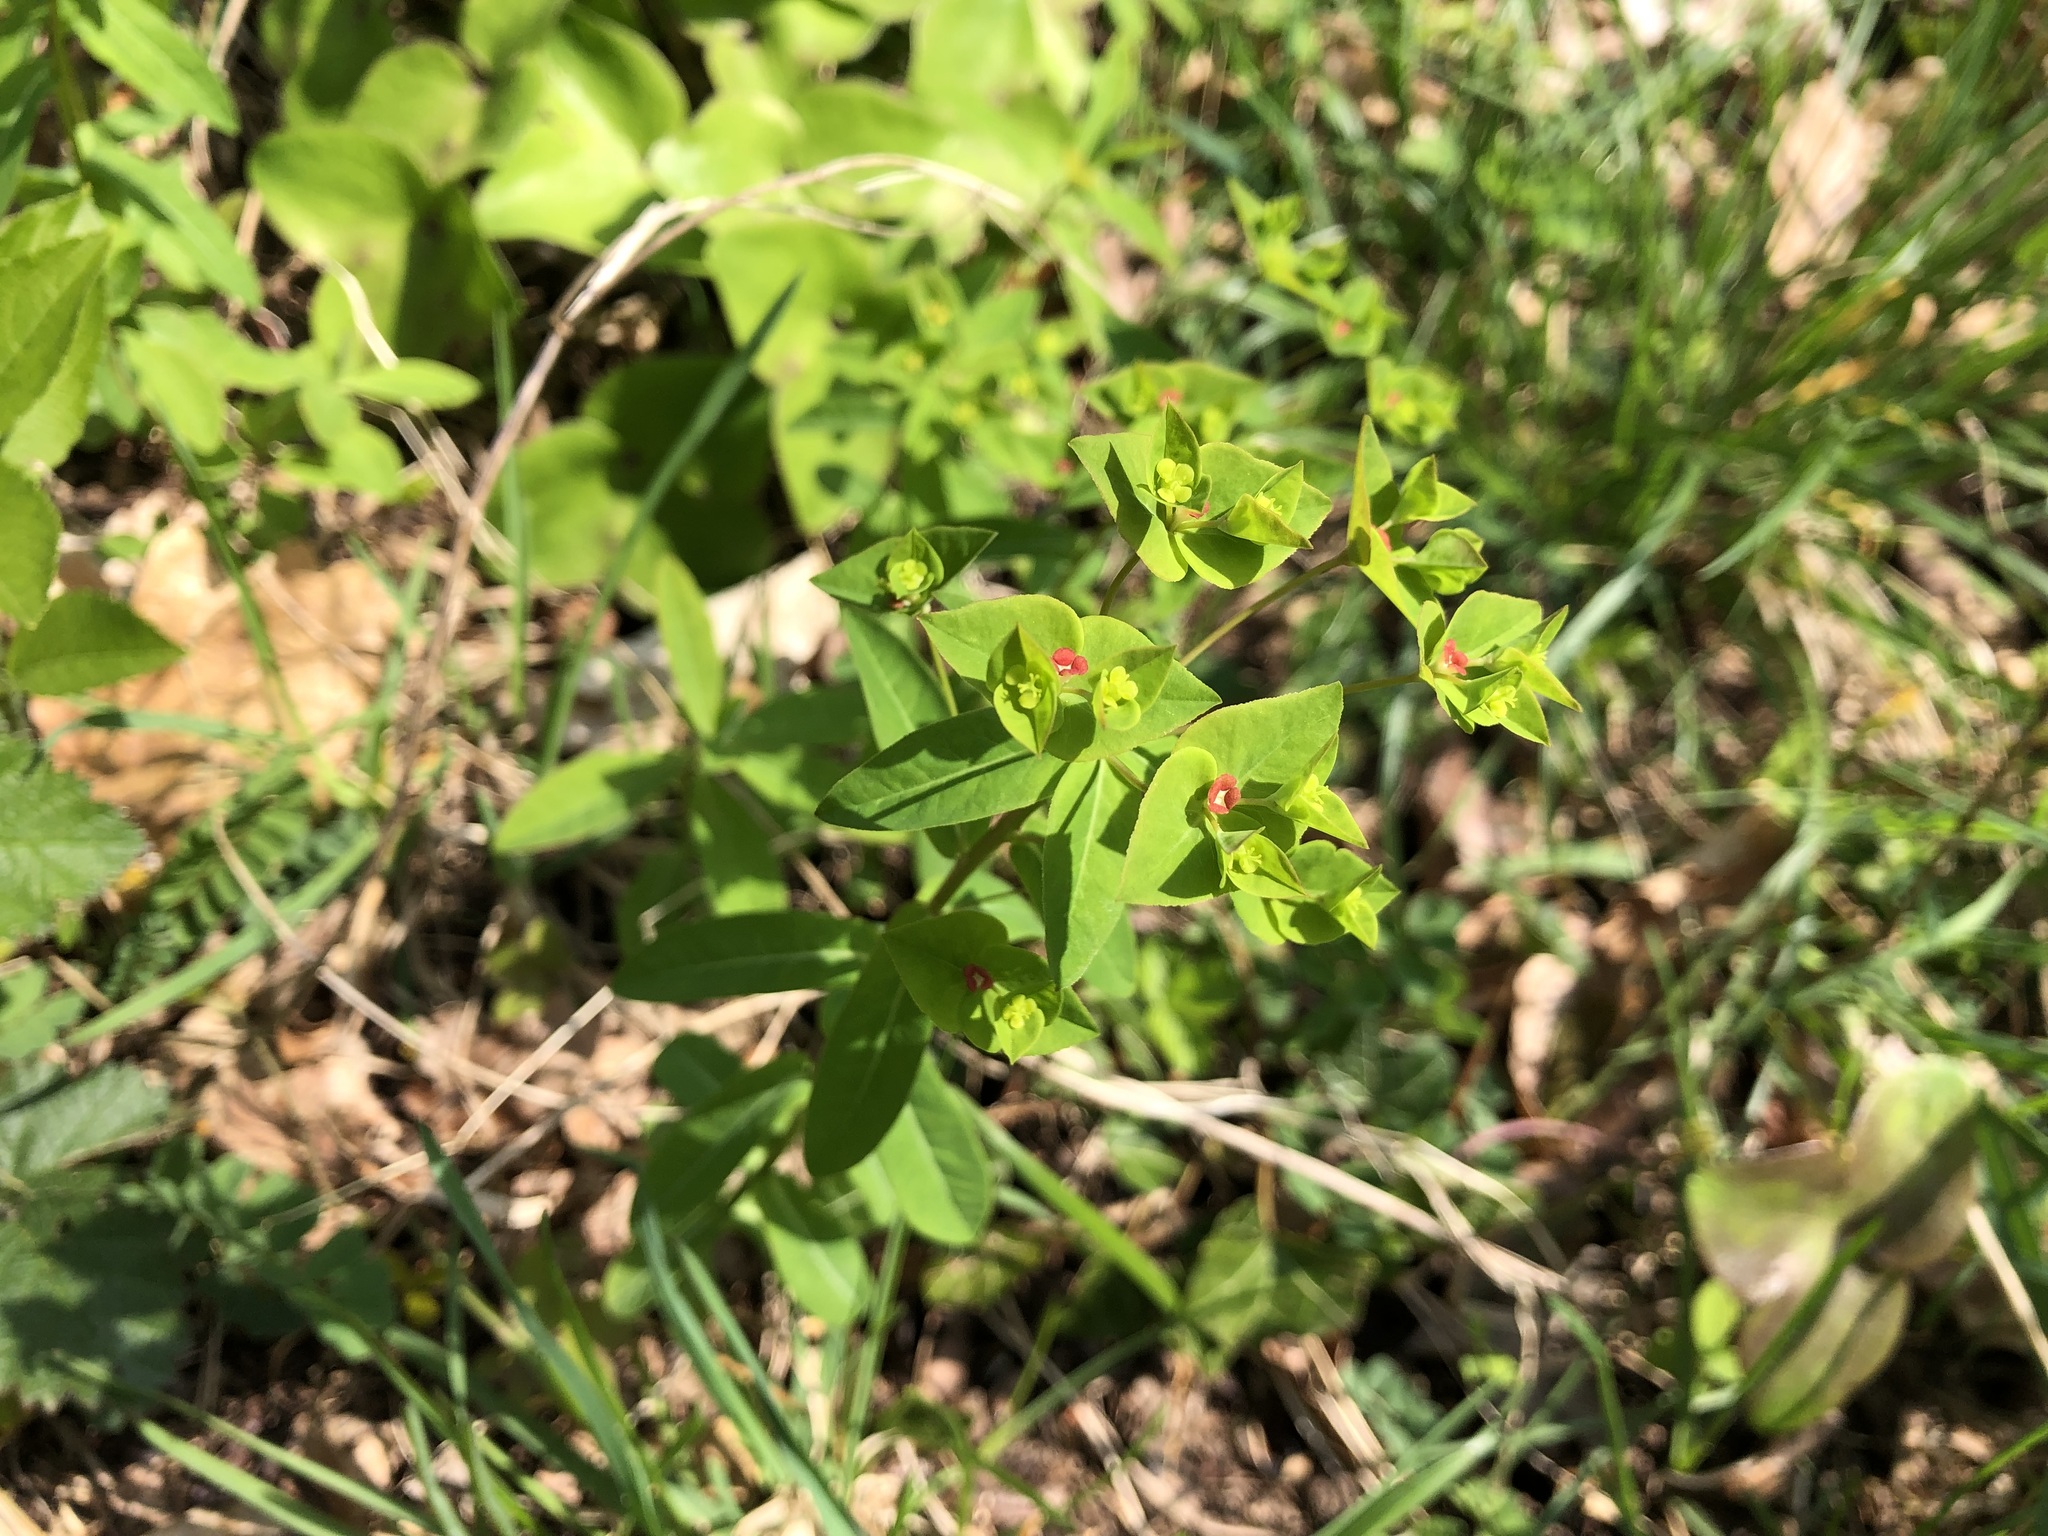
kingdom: Plantae
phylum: Tracheophyta
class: Magnoliopsida
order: Malpighiales
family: Euphorbiaceae
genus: Euphorbia
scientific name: Euphorbia dulcis
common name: Sweet spurge
